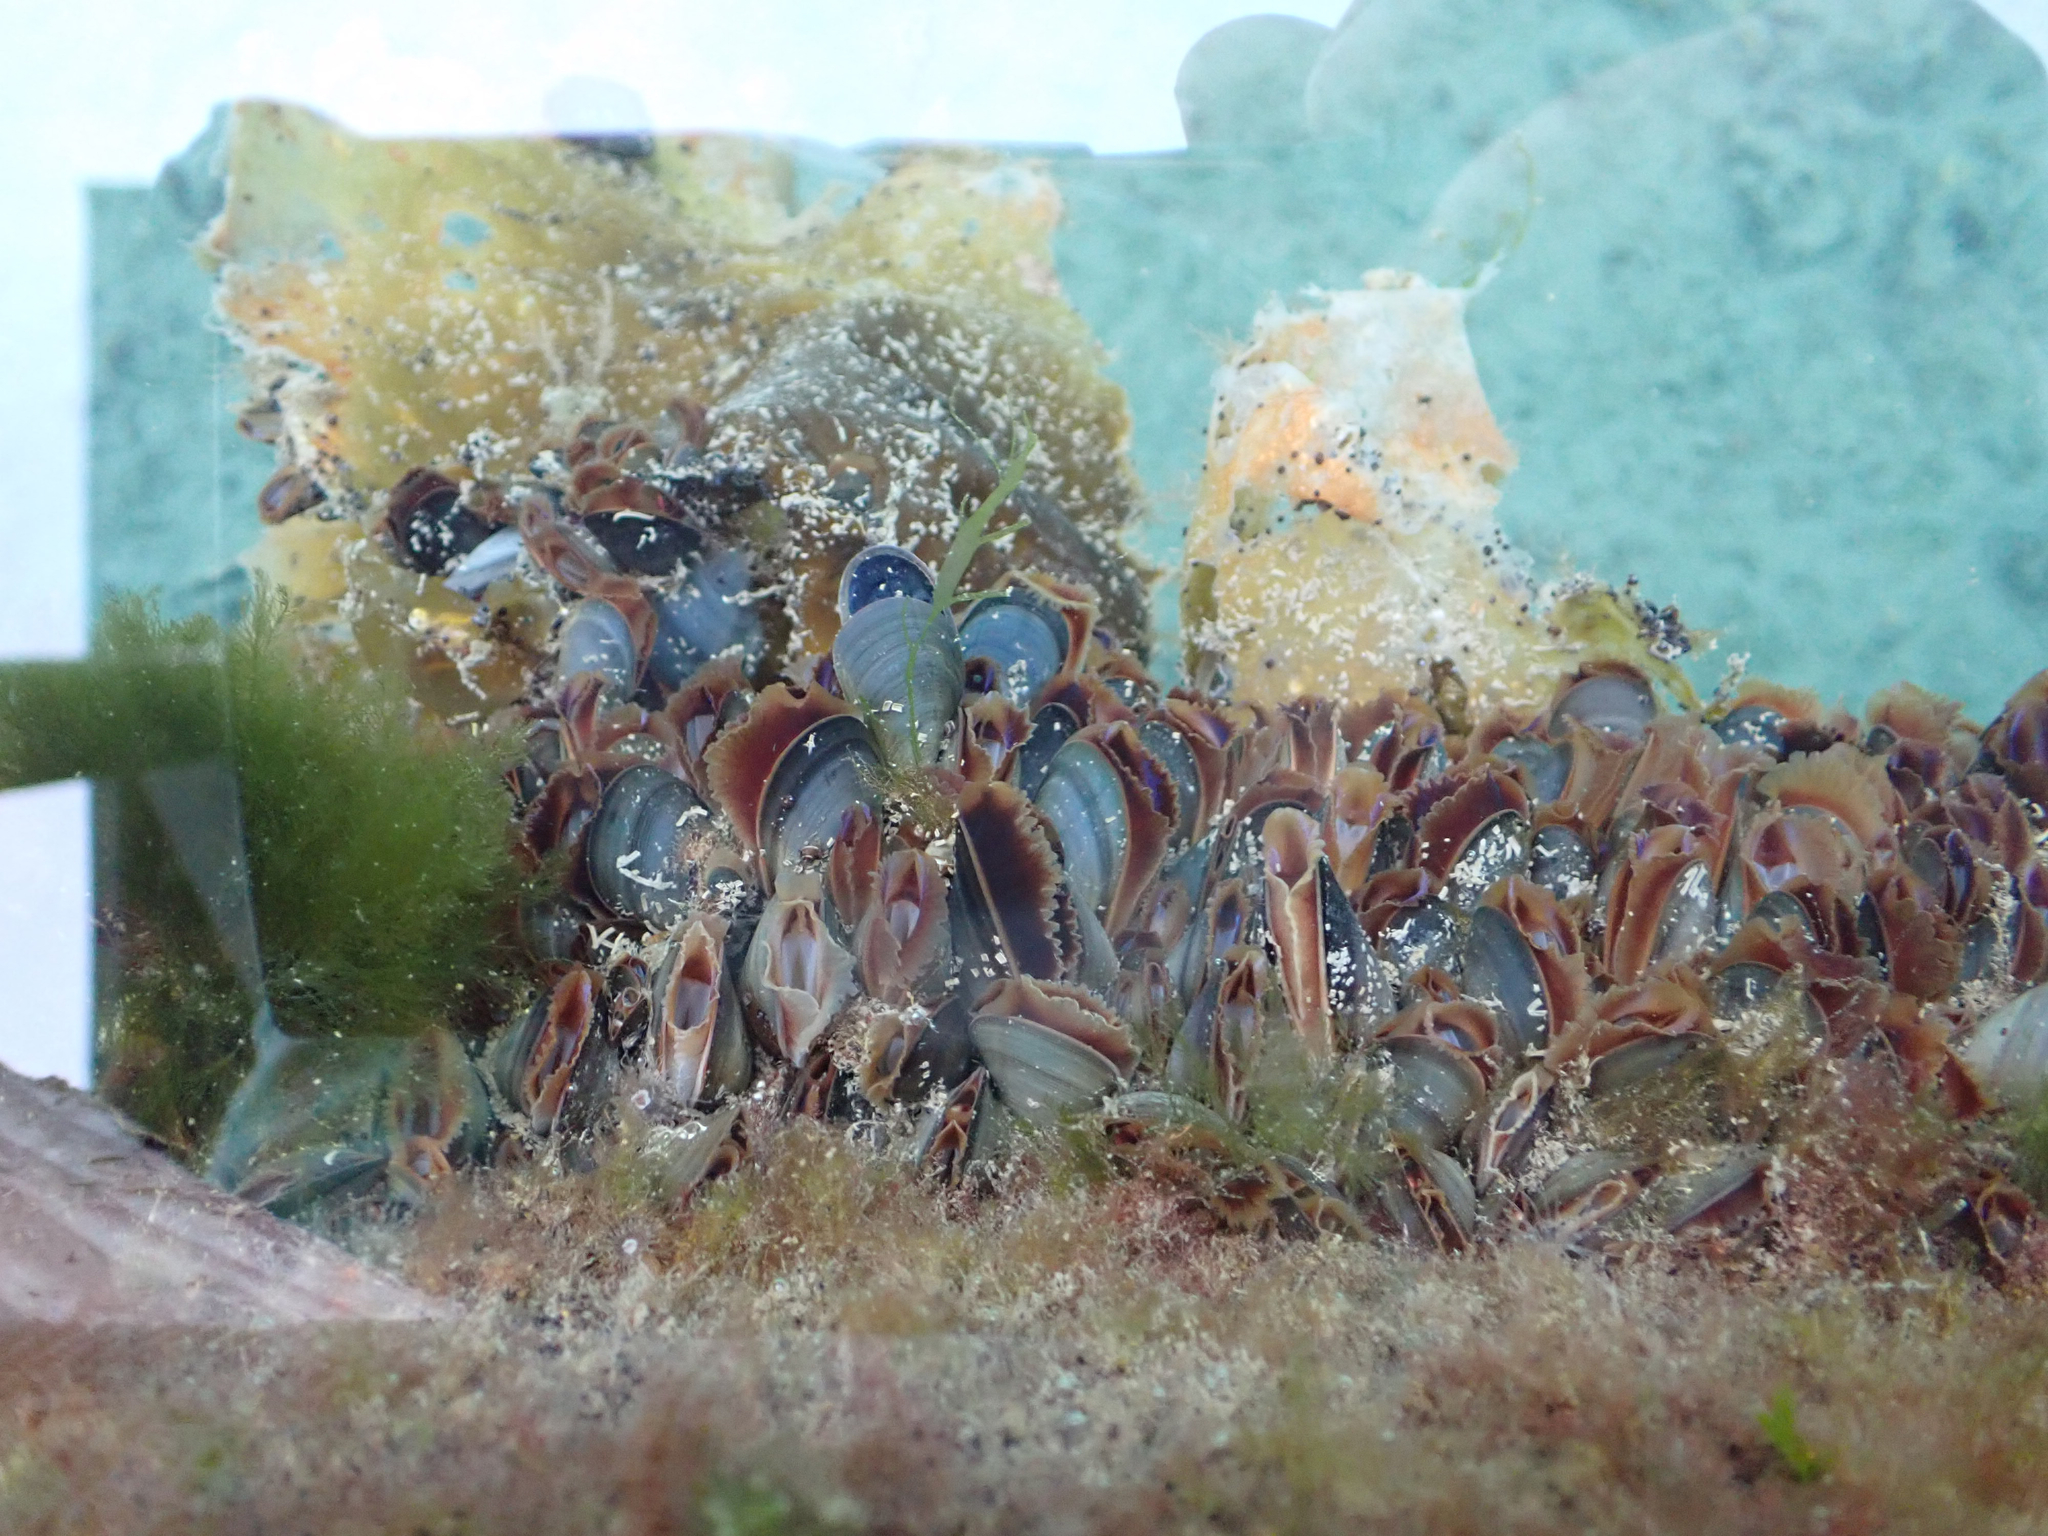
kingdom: Animalia
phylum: Mollusca
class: Bivalvia
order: Mytilida
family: Mytilidae
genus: Mytilus
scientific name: Mytilus trossulus
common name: Northern blue mussel
